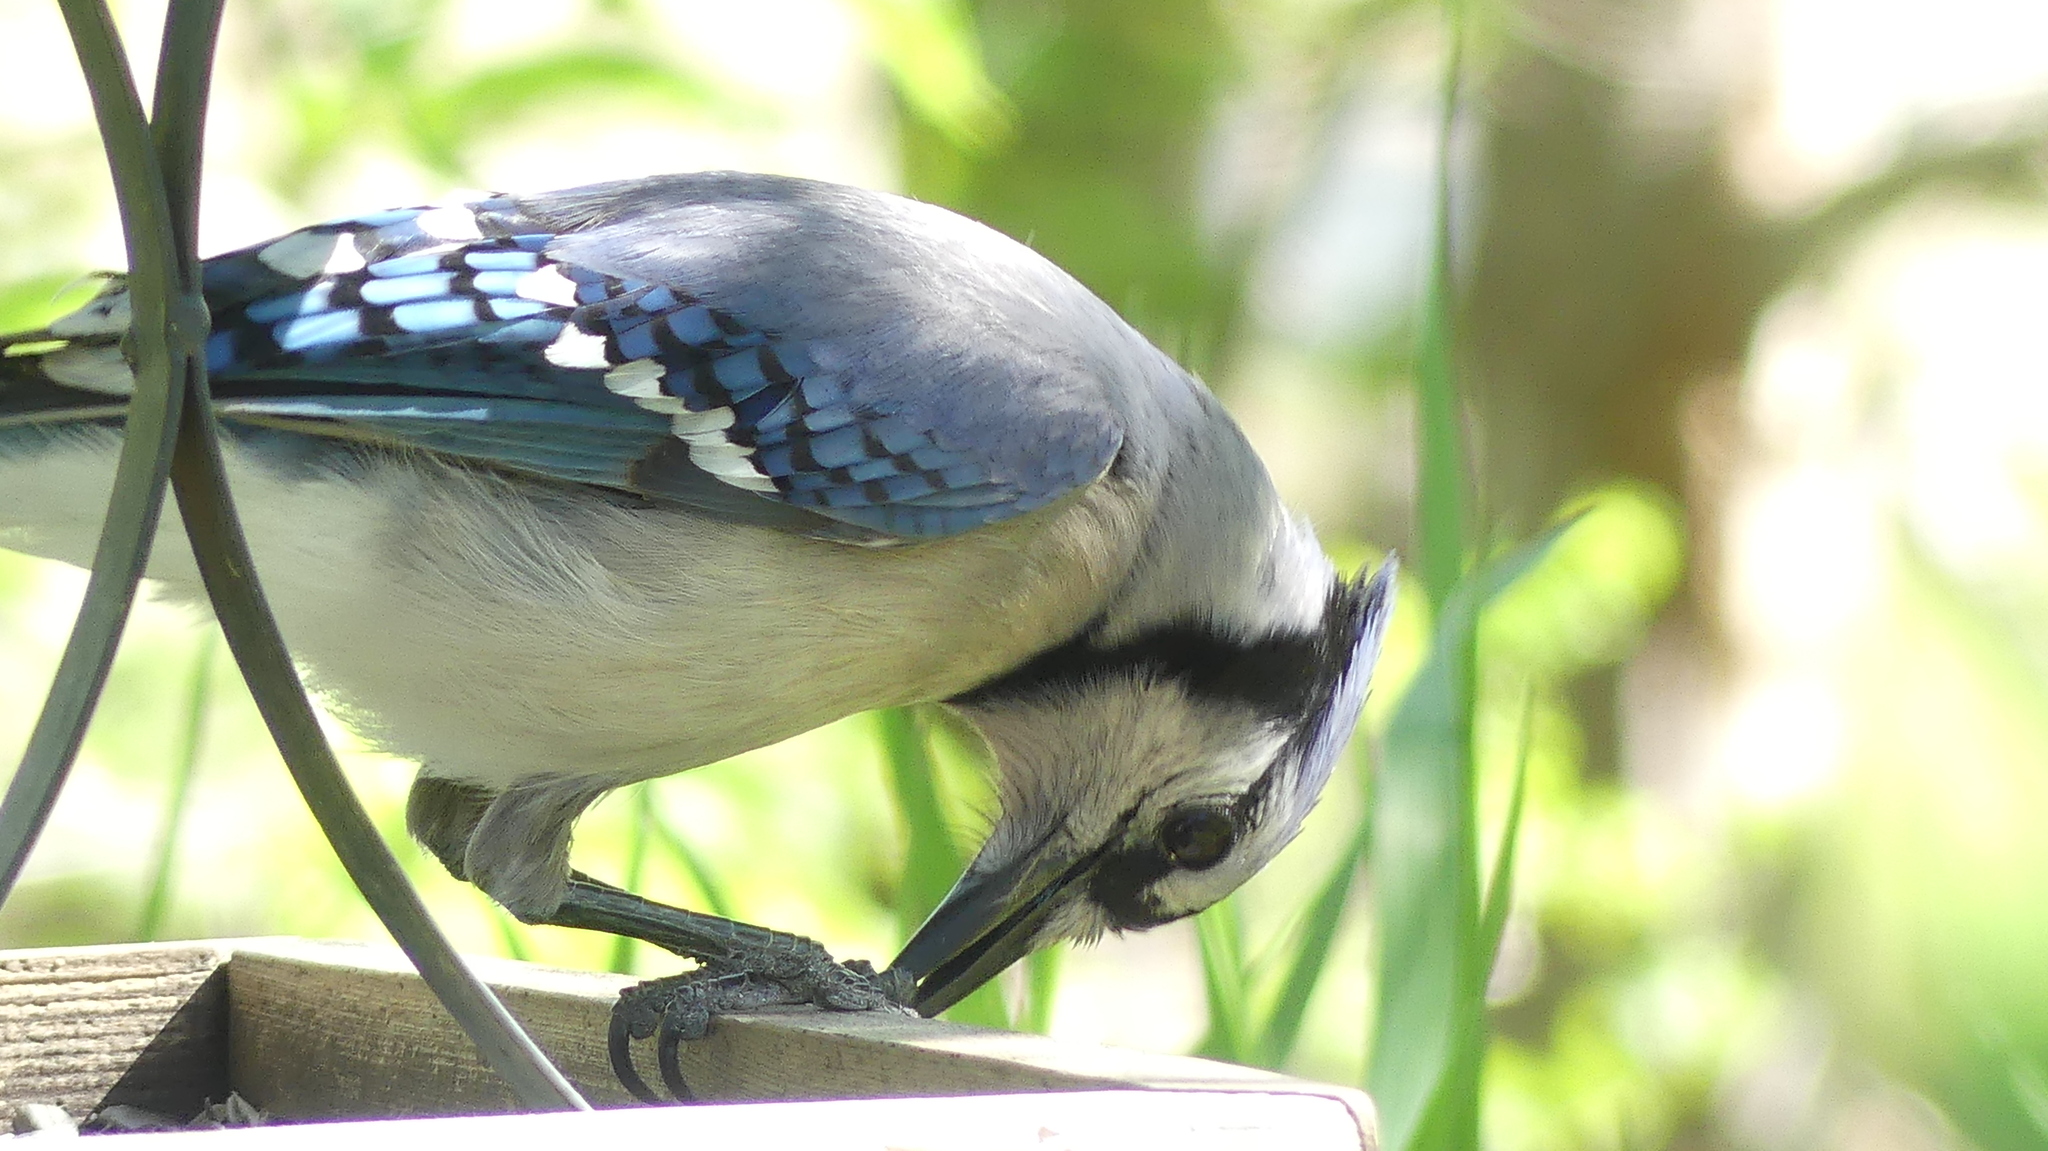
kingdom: Animalia
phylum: Chordata
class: Aves
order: Passeriformes
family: Corvidae
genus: Cyanocitta
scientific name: Cyanocitta cristata
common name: Blue jay
